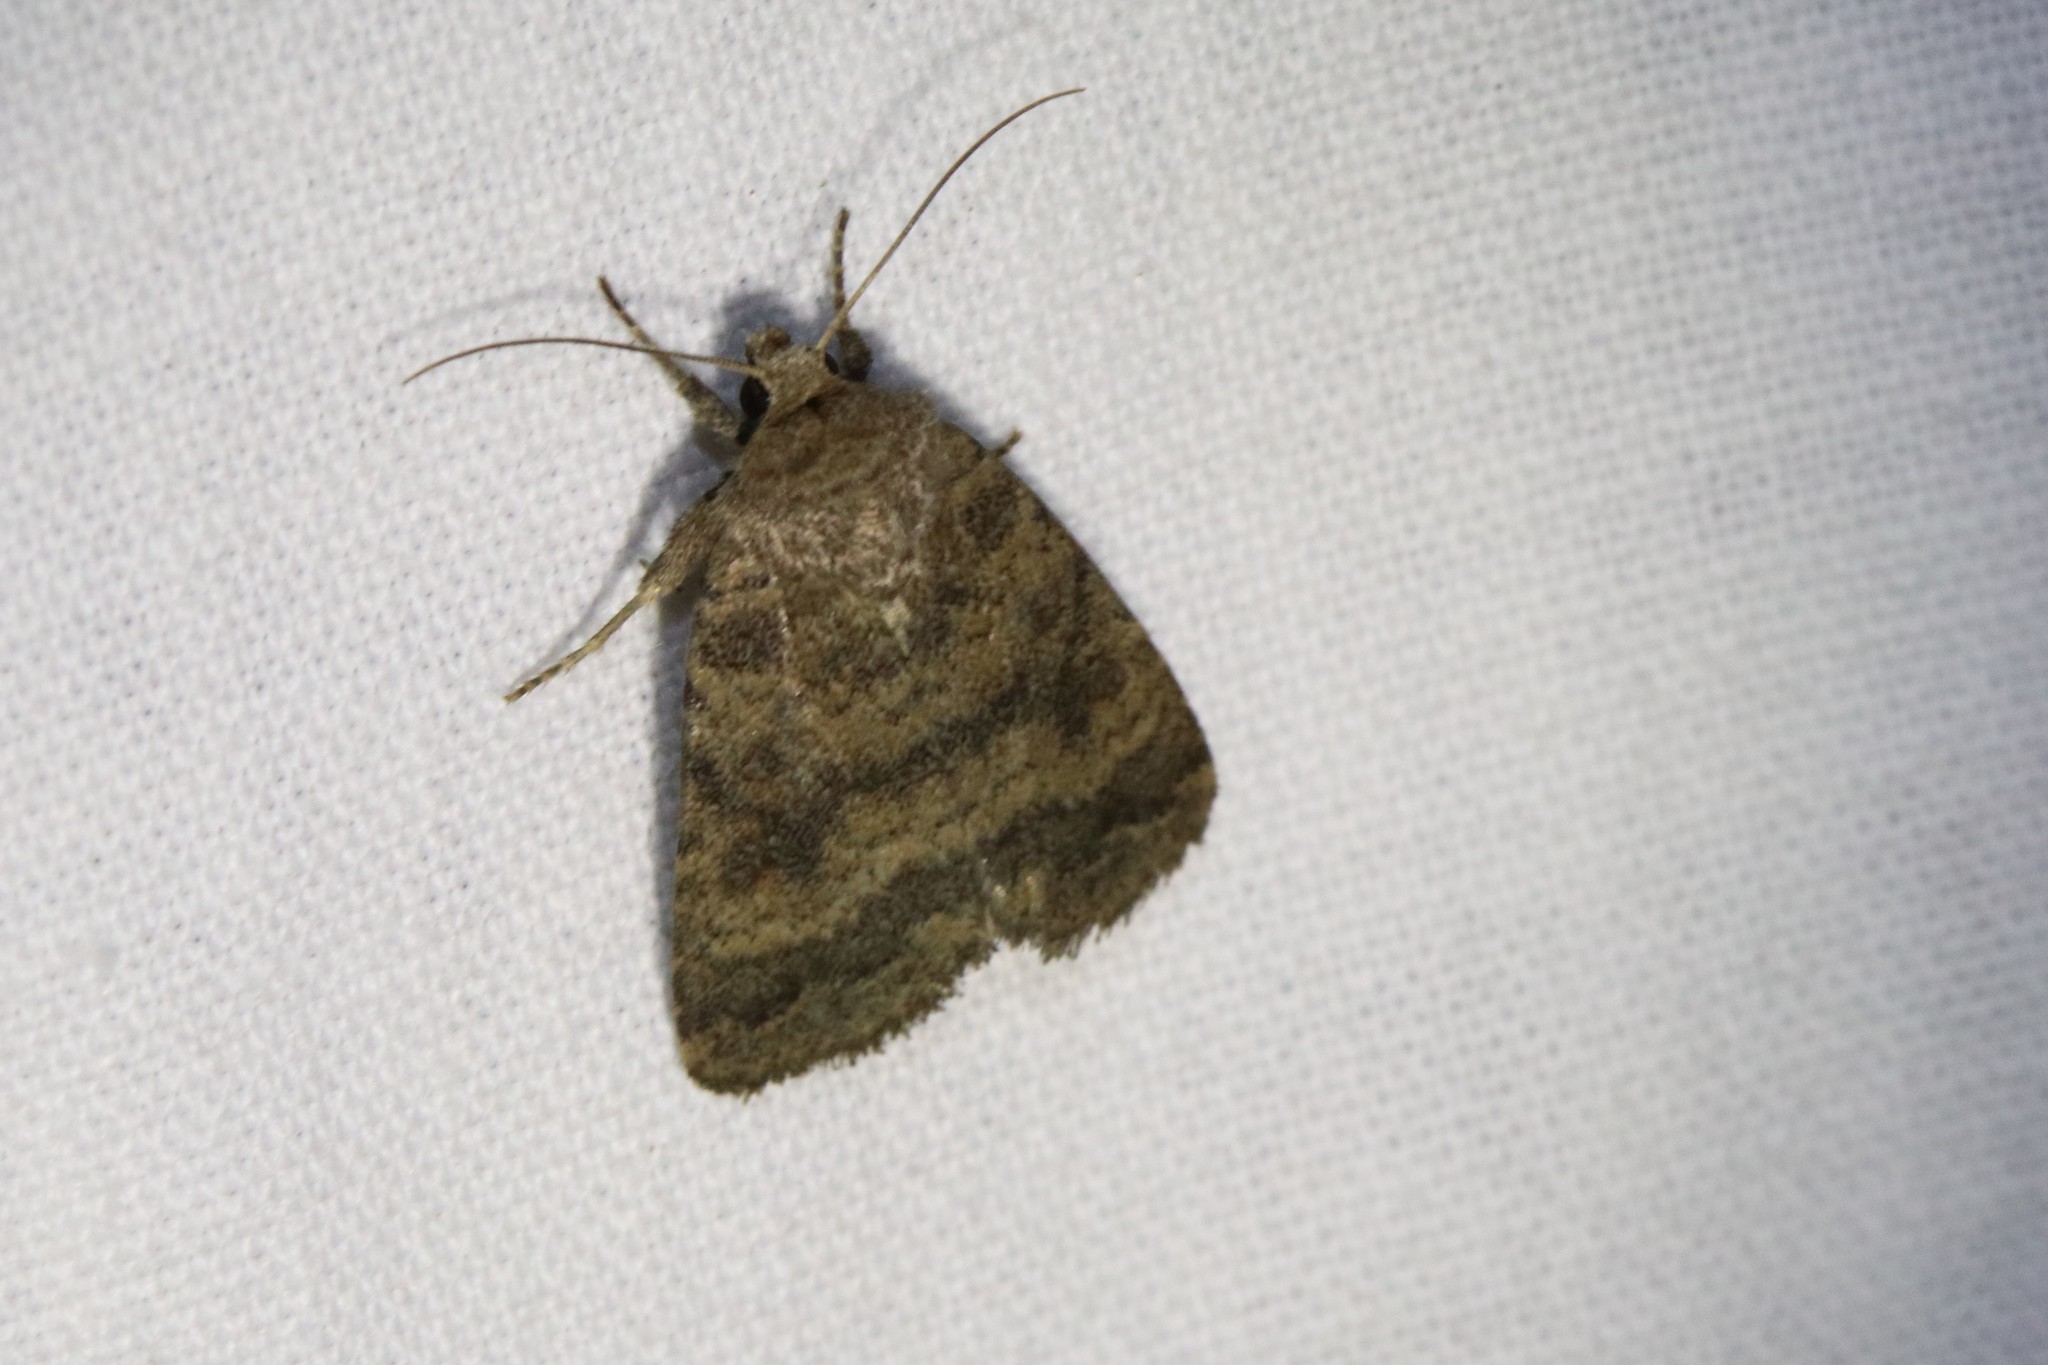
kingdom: Animalia
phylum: Arthropoda
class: Insecta
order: Lepidoptera
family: Noctuidae
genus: Caradrina
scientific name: Caradrina morpheus
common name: Mottled rustic
